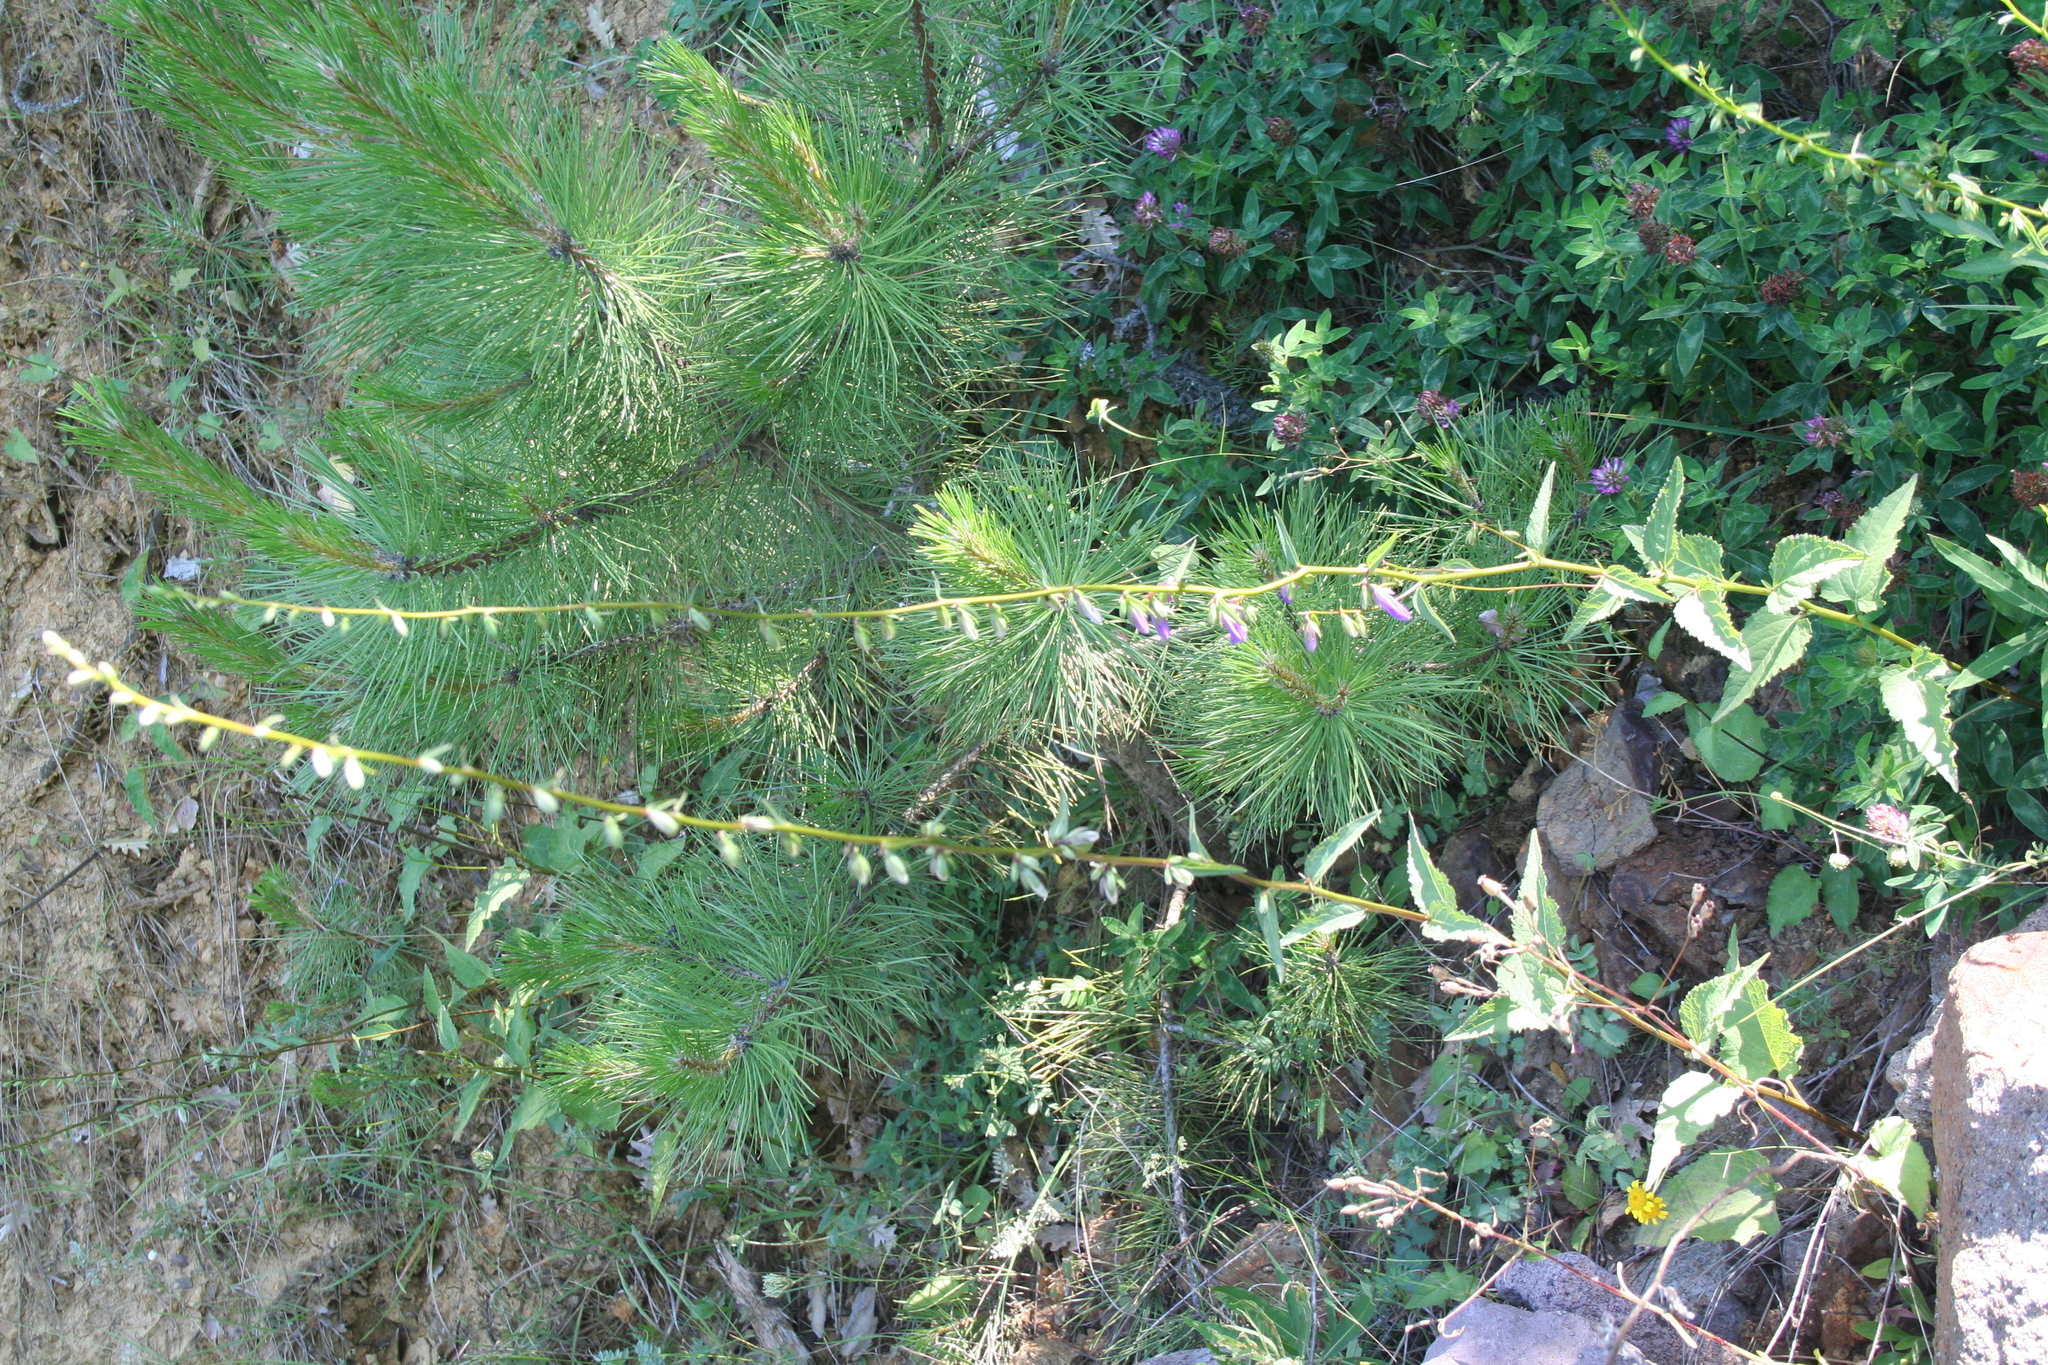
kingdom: Plantae
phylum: Tracheophyta
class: Magnoliopsida
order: Asterales
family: Campanulaceae
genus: Campanula
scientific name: Campanula rapunculoides
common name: Creeping bellflower
